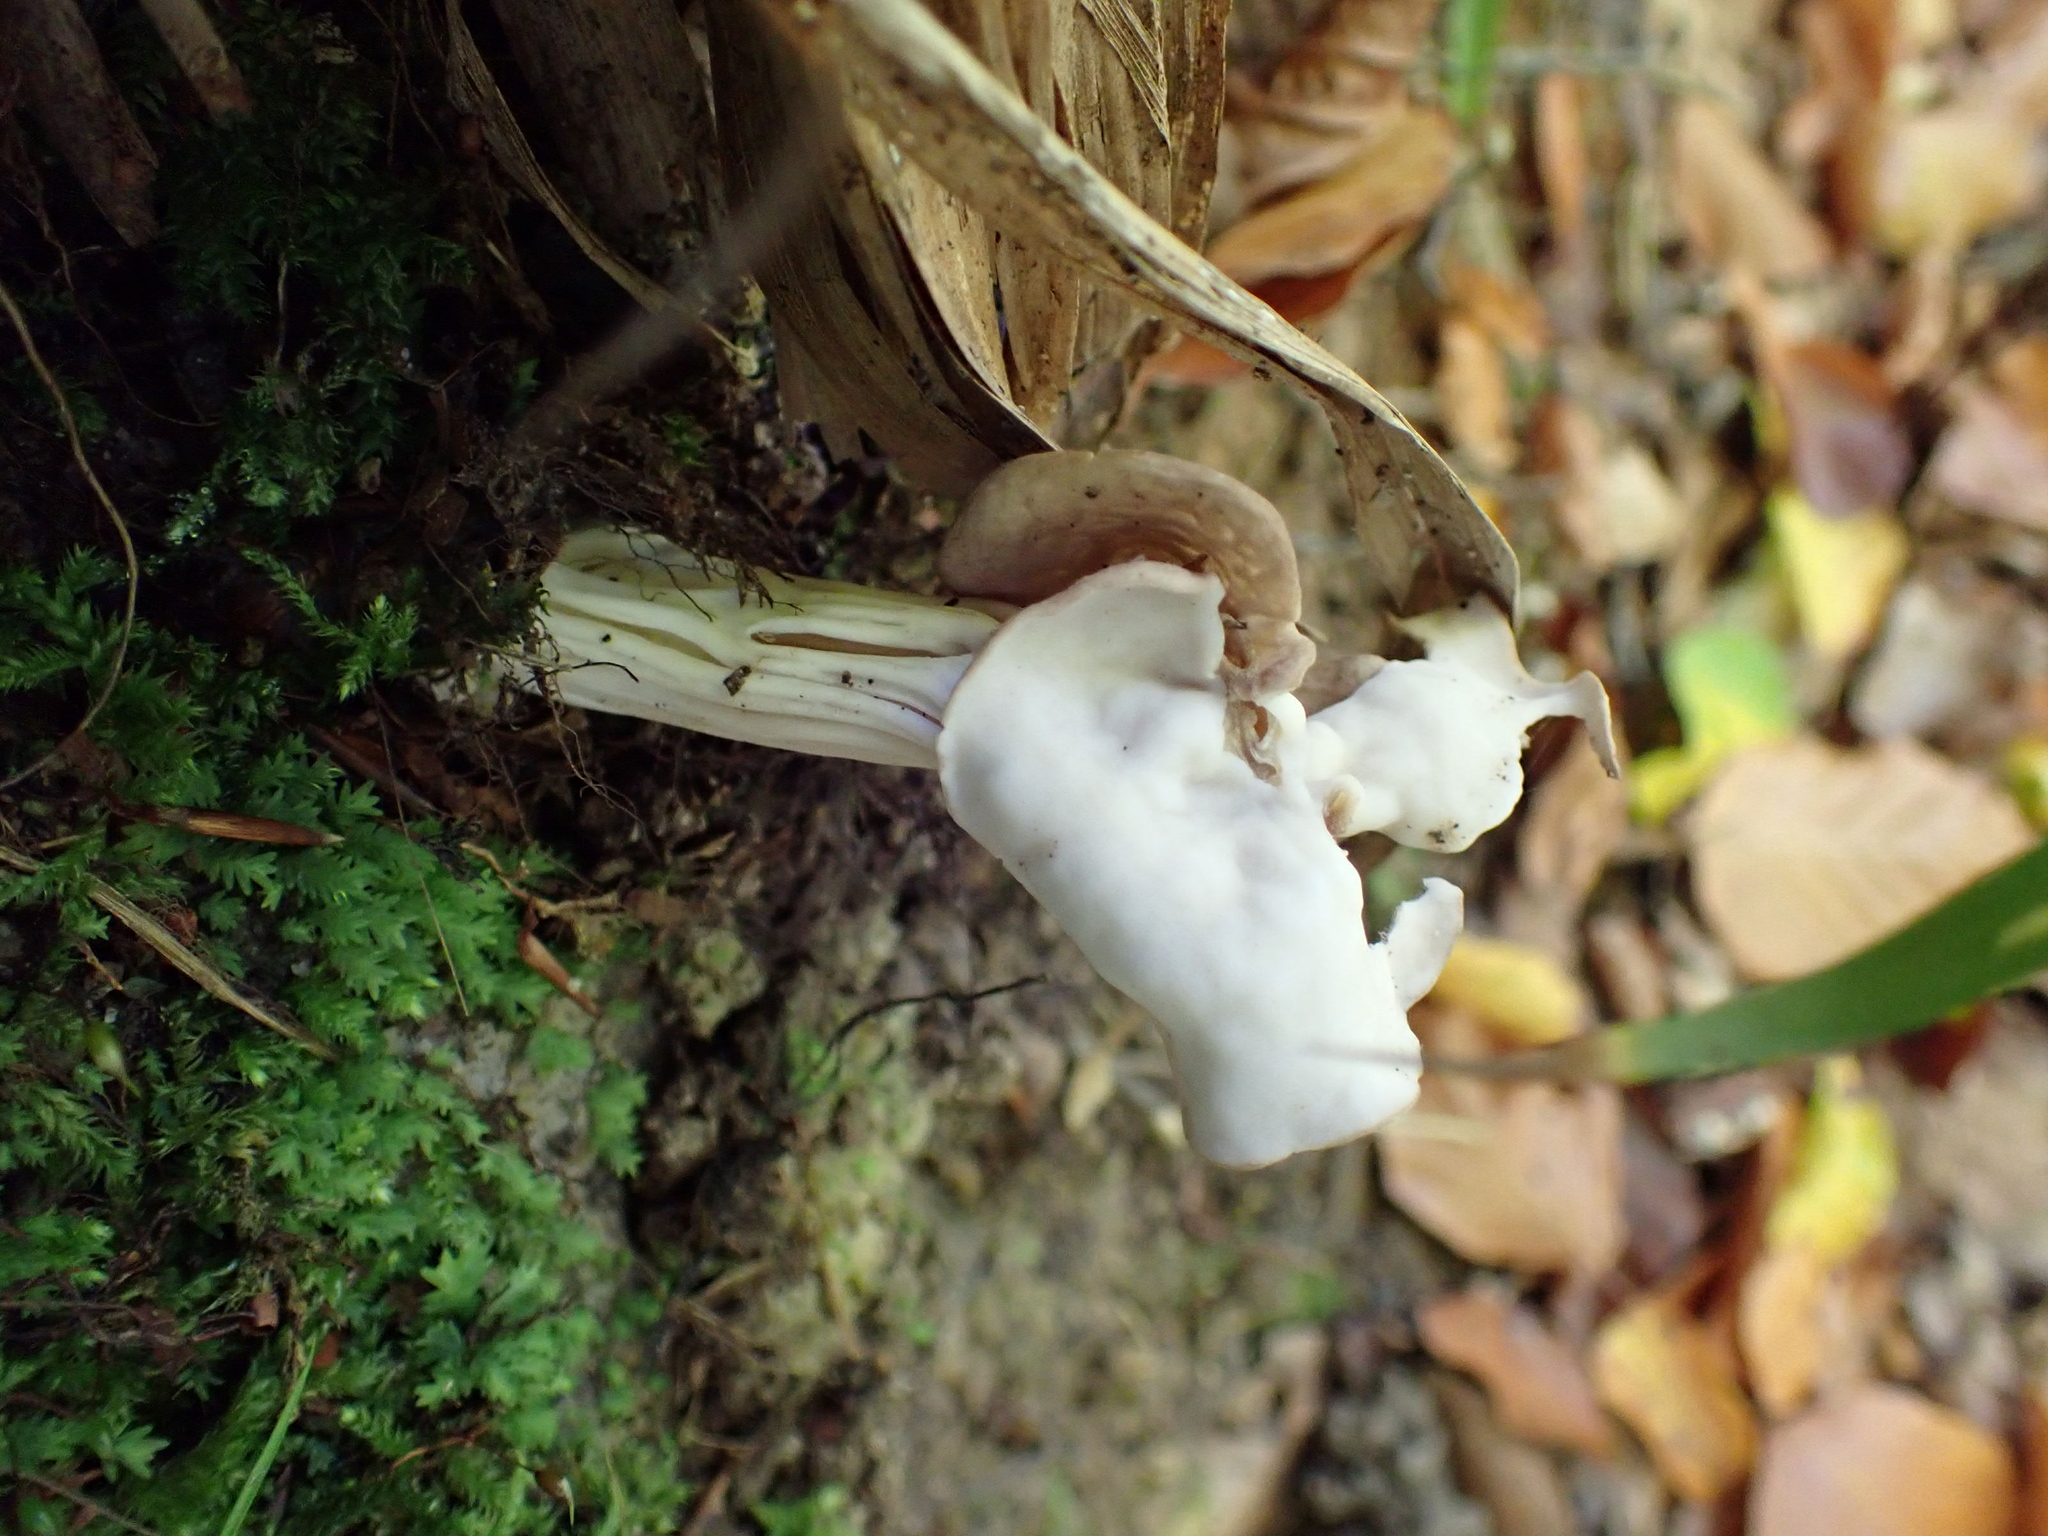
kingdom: Fungi
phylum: Ascomycota
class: Pezizomycetes
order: Pezizales
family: Helvellaceae
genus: Helvella
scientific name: Helvella crispa
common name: White saddle
